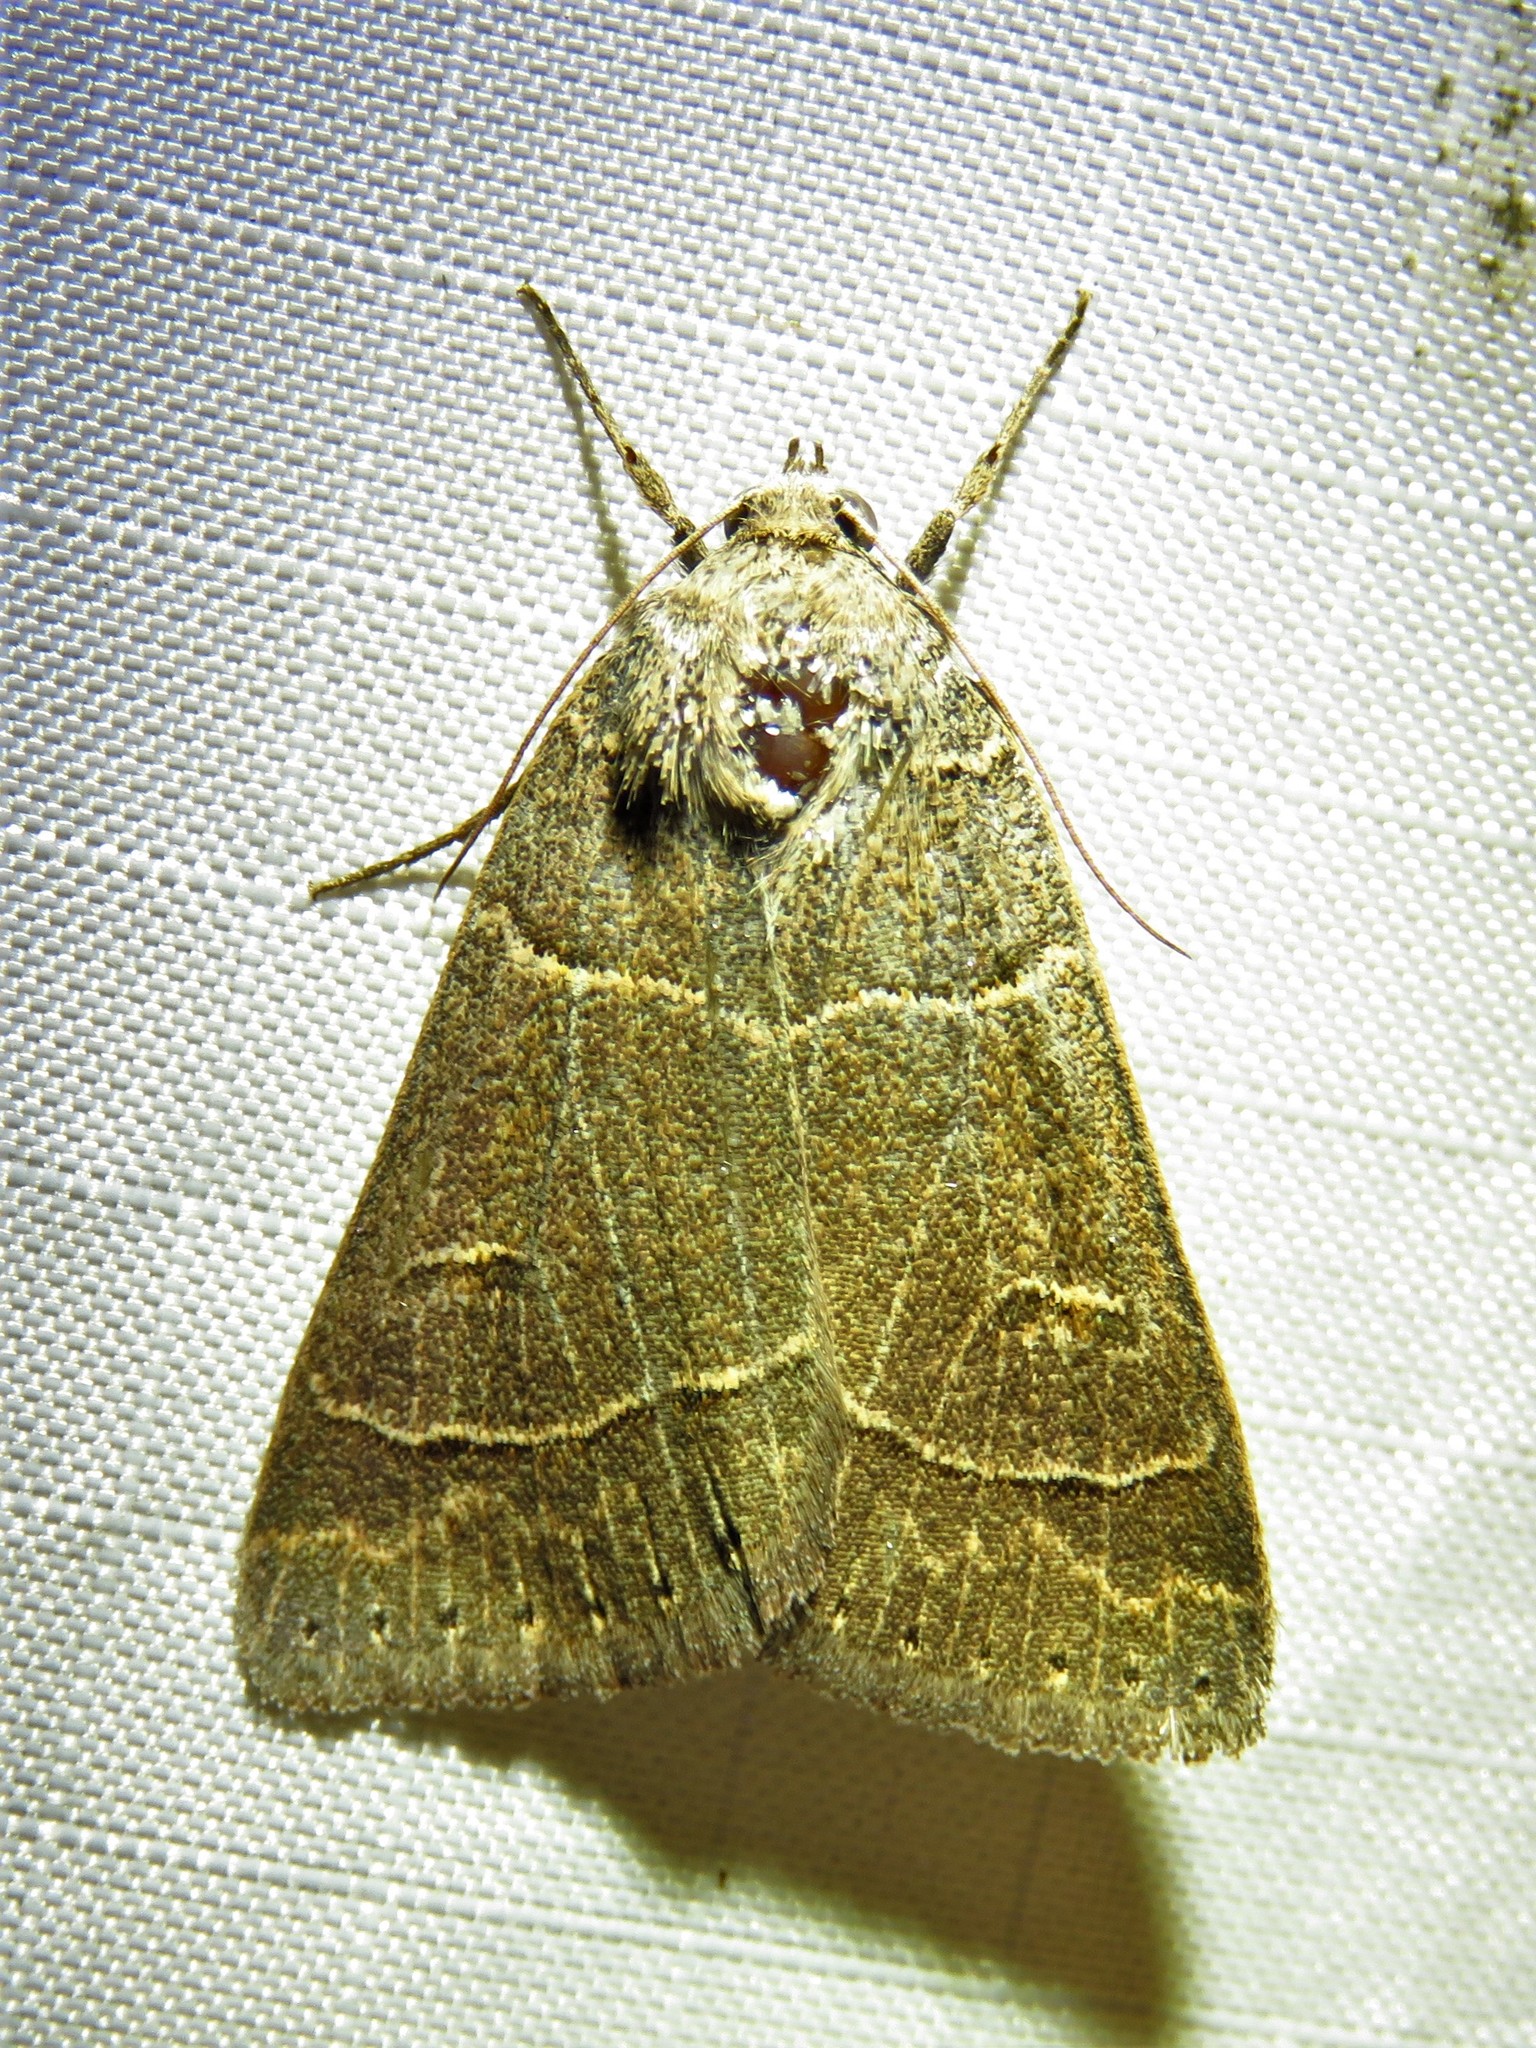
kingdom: Animalia
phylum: Arthropoda
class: Insecta
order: Lepidoptera
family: Erebidae
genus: Phoberia
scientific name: Phoberia atomaris
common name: Common oak moth
